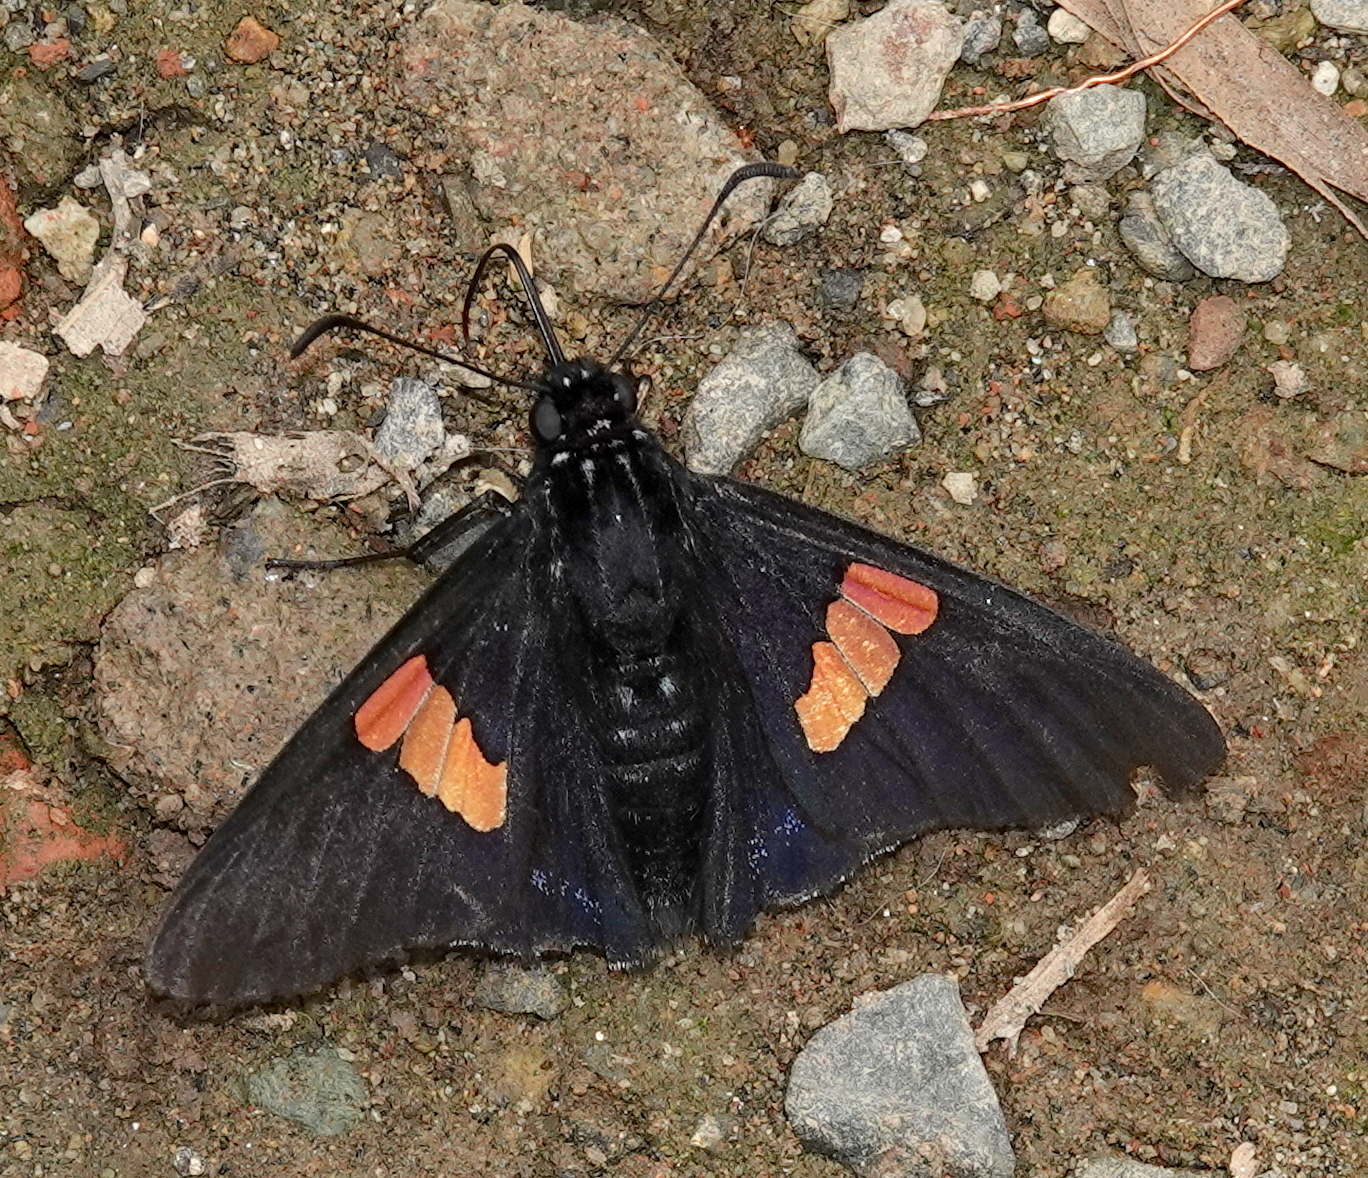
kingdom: Animalia
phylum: Arthropoda
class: Insecta
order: Lepidoptera
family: Hesperiidae
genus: Mimoniades
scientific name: Mimoniades nurscia
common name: Nursica skipper
